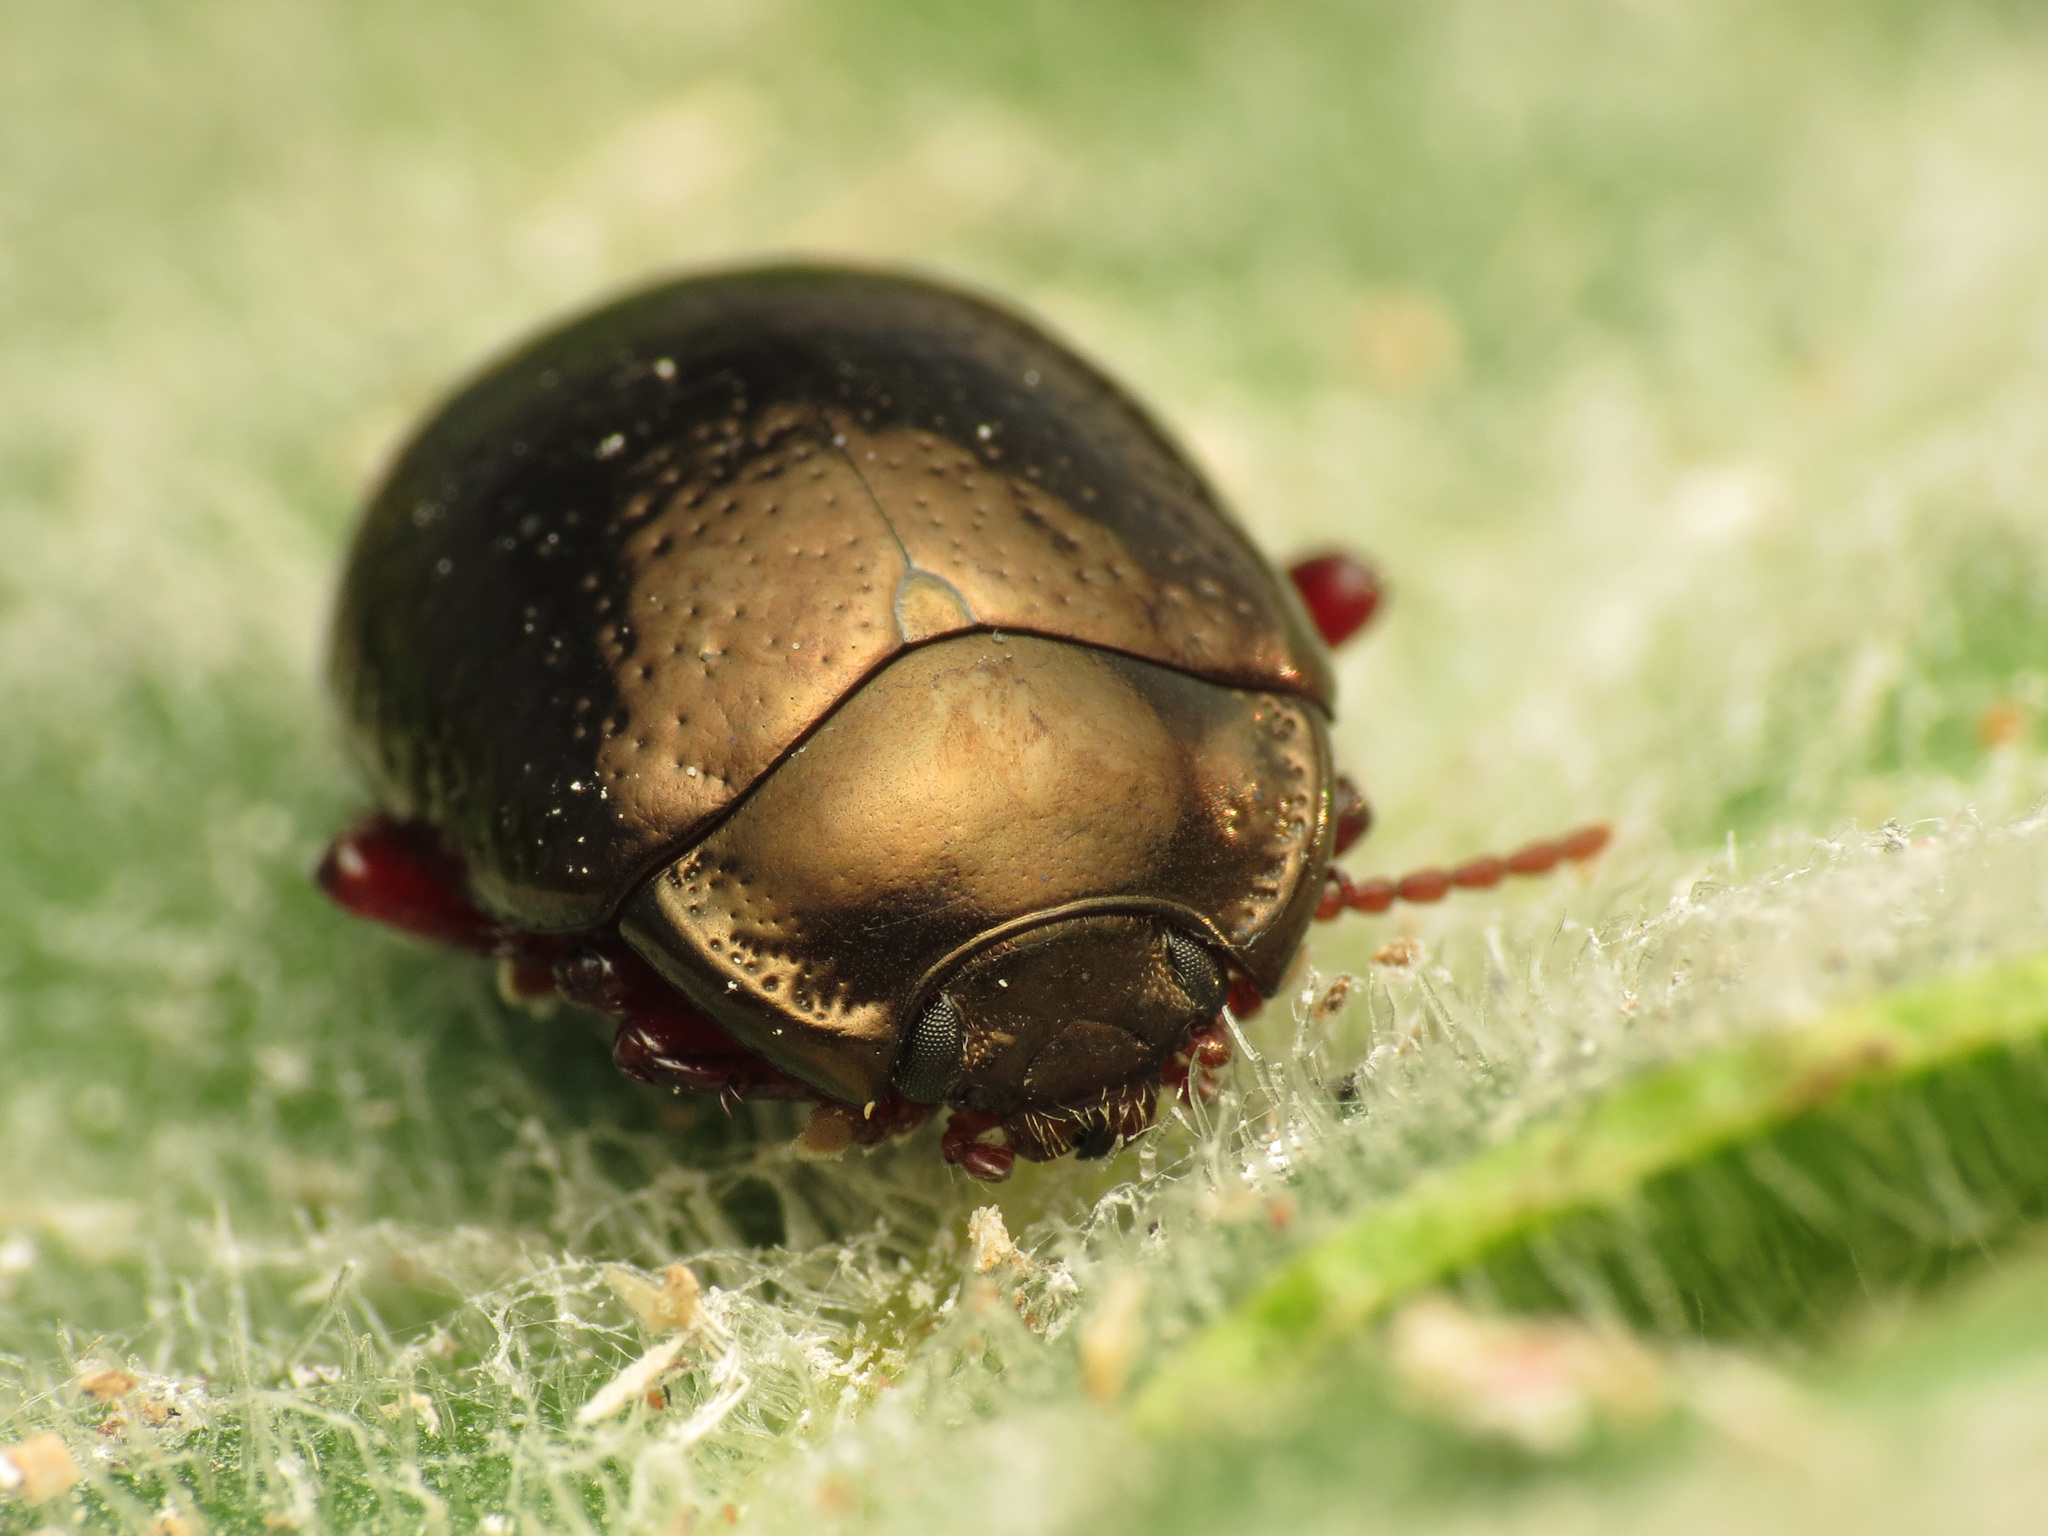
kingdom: Animalia
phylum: Arthropoda
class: Insecta
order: Coleoptera
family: Chrysomelidae
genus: Chrysolina
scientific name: Chrysolina bankii
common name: Leaf beetle
